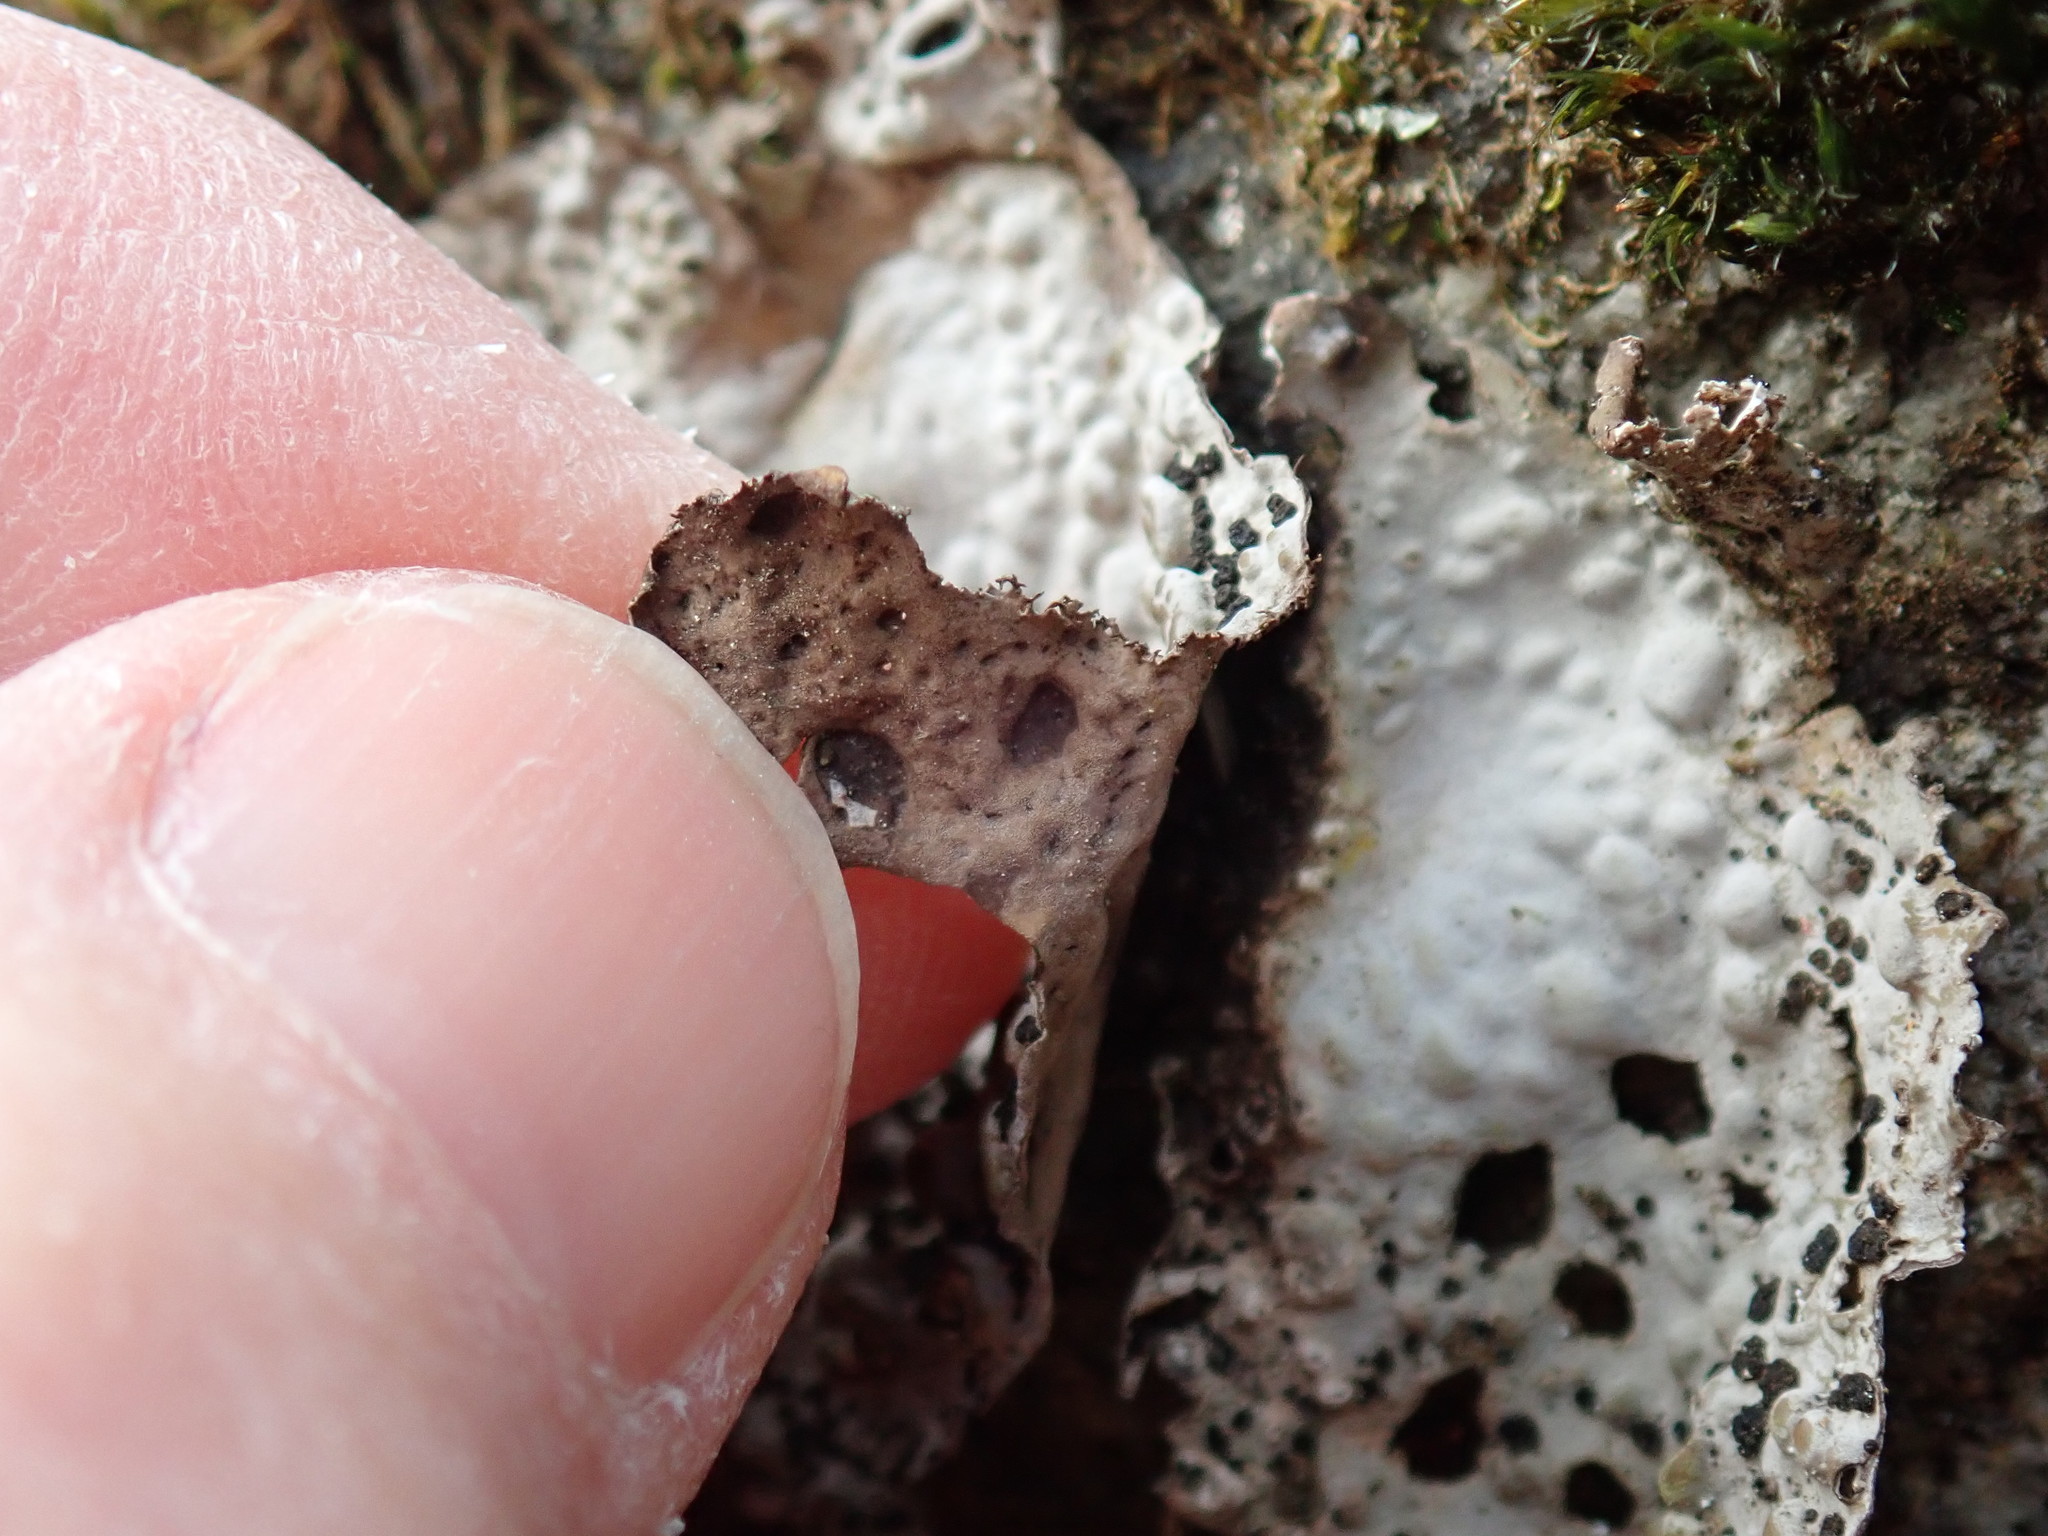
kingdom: Fungi
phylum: Ascomycota
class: Lecanoromycetes
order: Umbilicariales
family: Umbilicariaceae
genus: Lasallia
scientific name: Lasallia papulosa
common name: Common toadskin lichen
